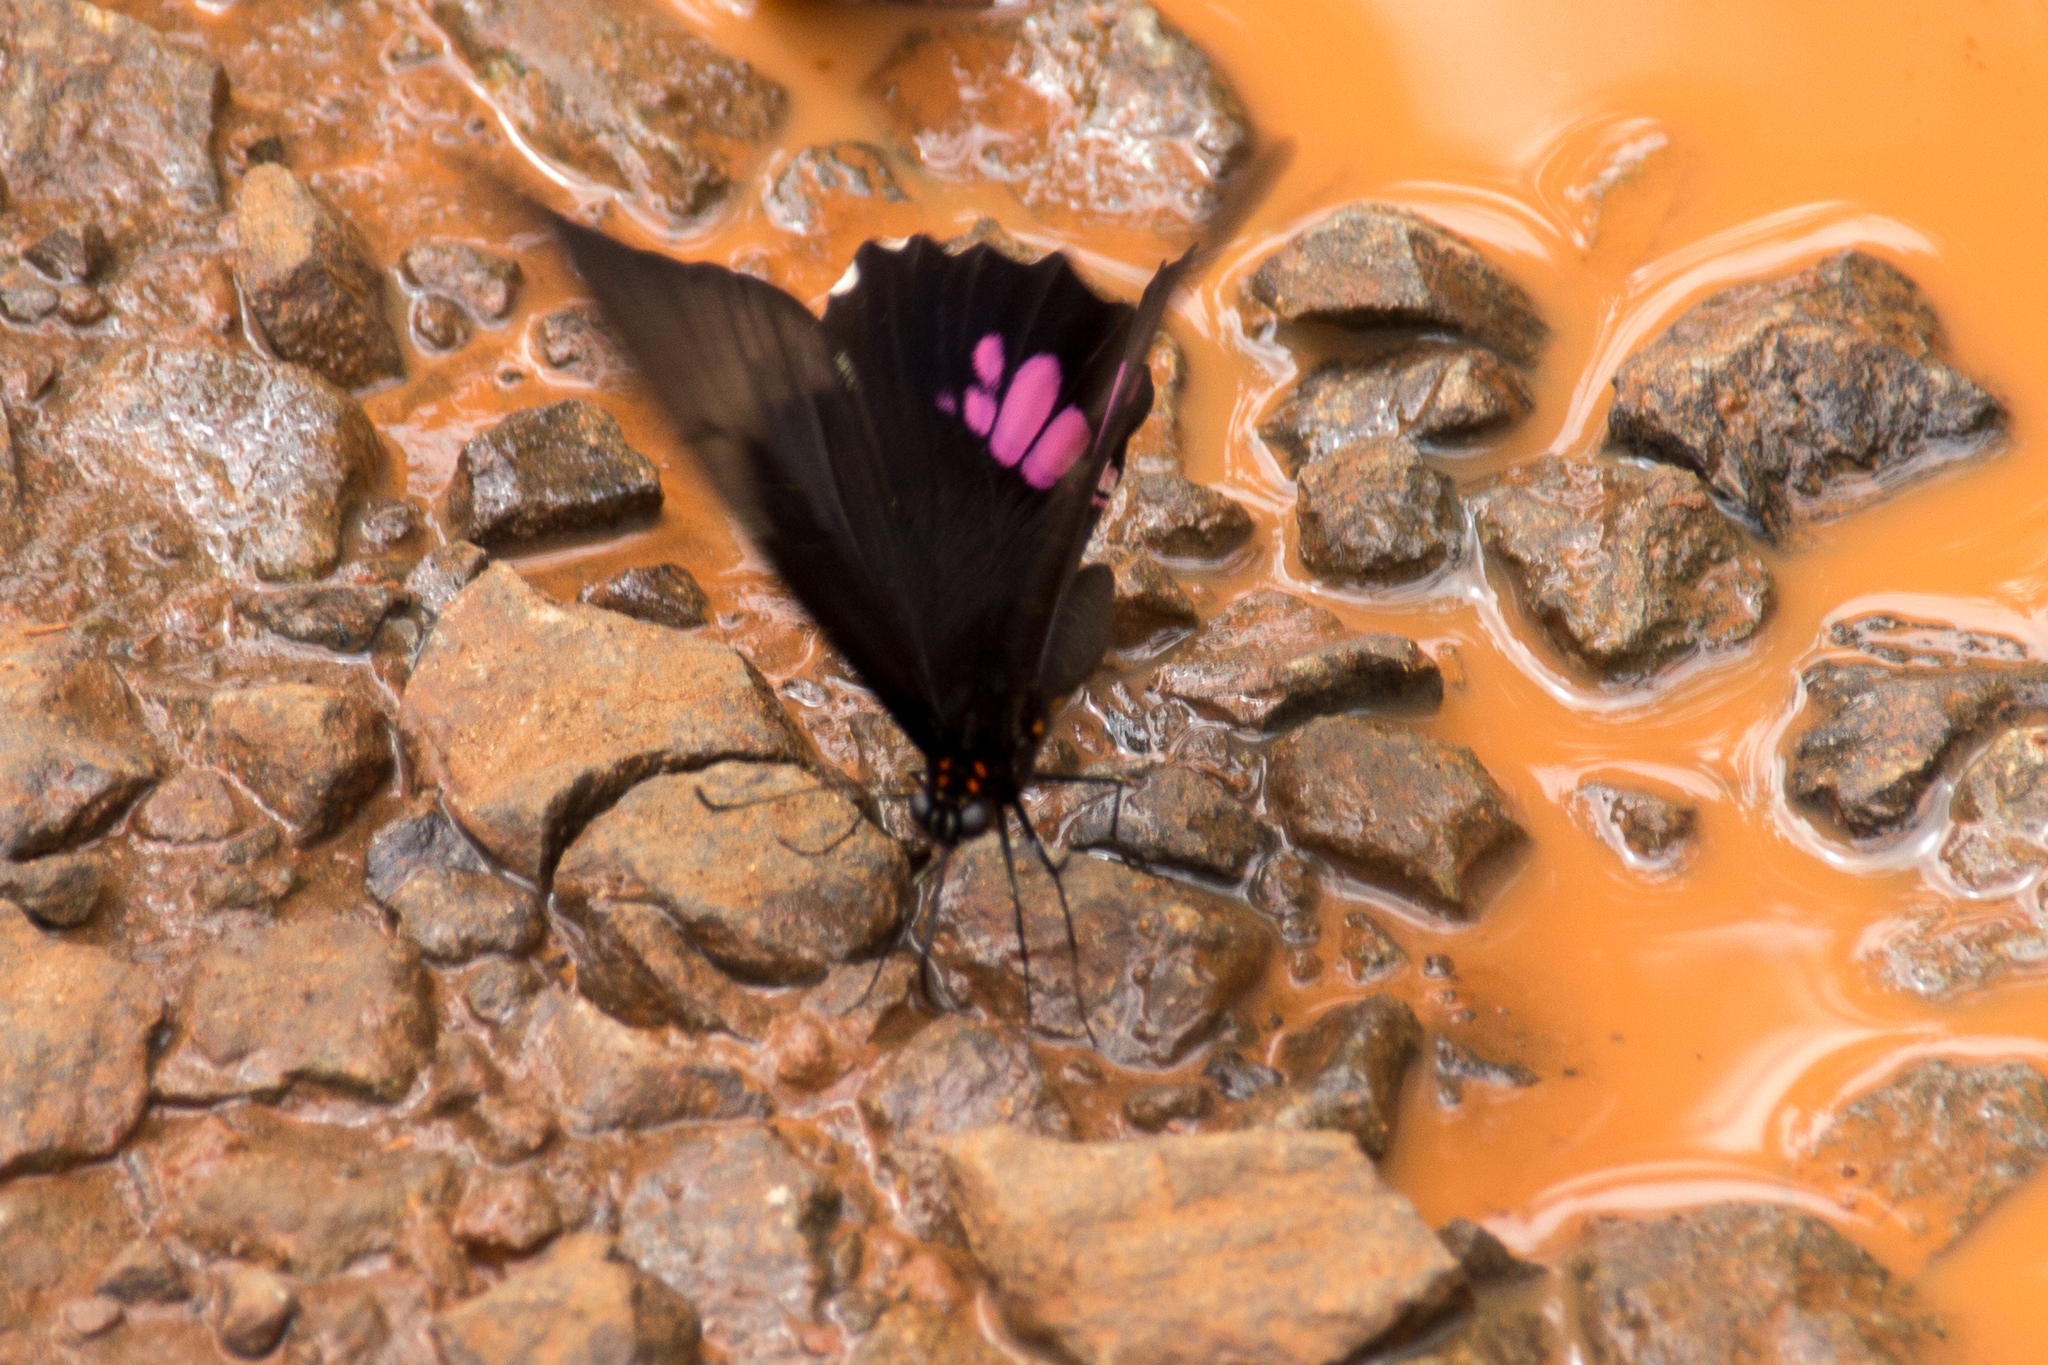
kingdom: Animalia
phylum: Arthropoda
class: Insecta
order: Lepidoptera
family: Papilionidae
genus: Papilio
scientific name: Papilio anchisiades
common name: Idaes swallowtail
